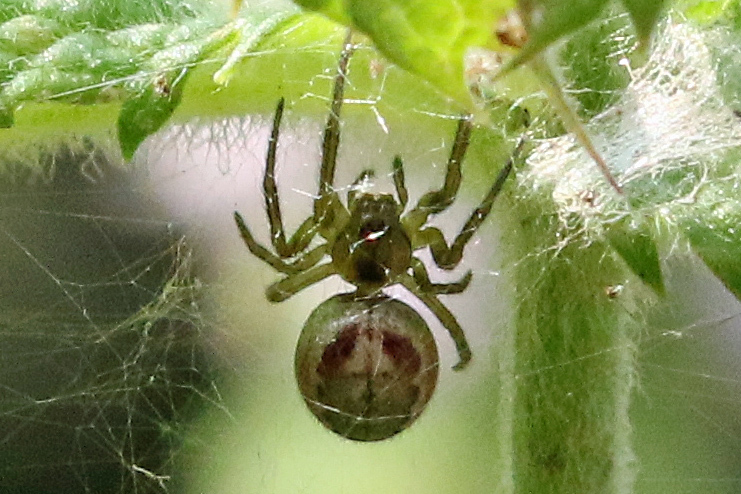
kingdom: Animalia
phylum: Arthropoda
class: Arachnida
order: Araneae
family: Araneidae
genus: Zygiella
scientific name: Zygiella atrica
